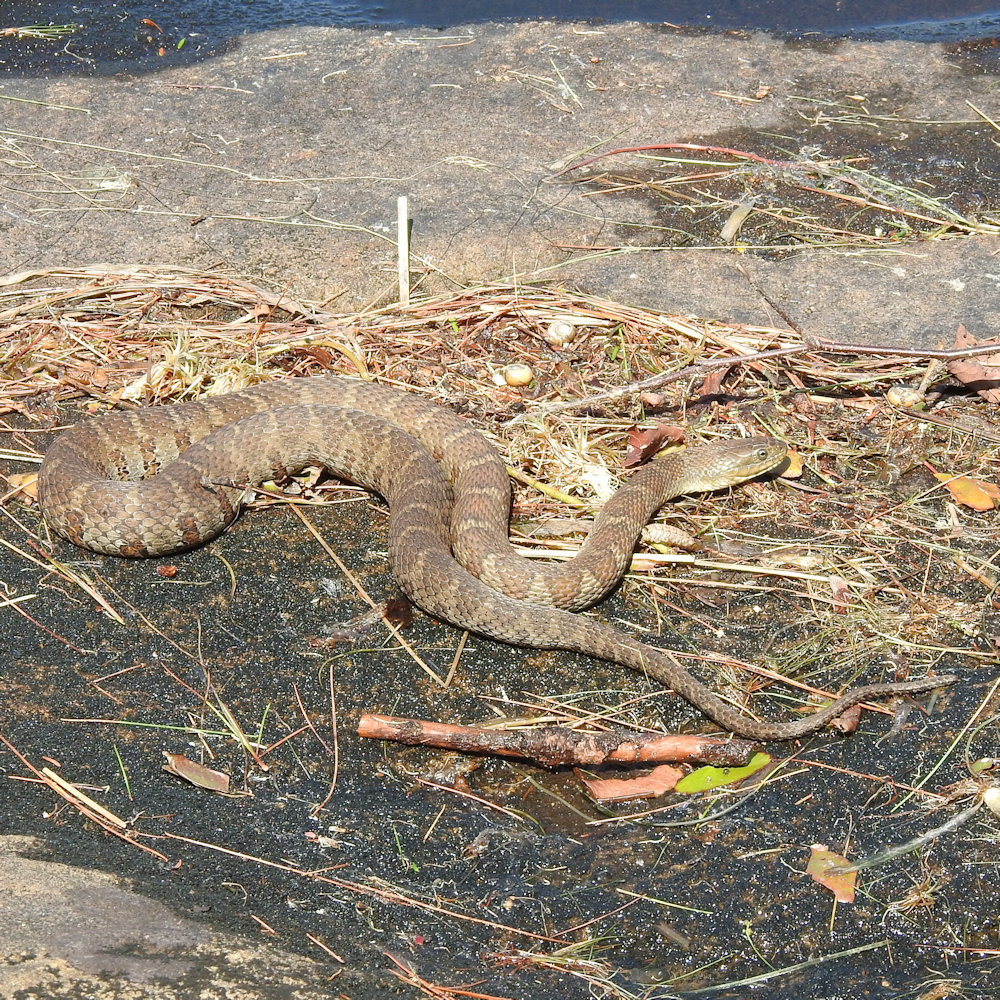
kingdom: Animalia
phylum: Chordata
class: Squamata
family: Colubridae
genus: Nerodia
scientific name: Nerodia sipedon
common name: Northern water snake
